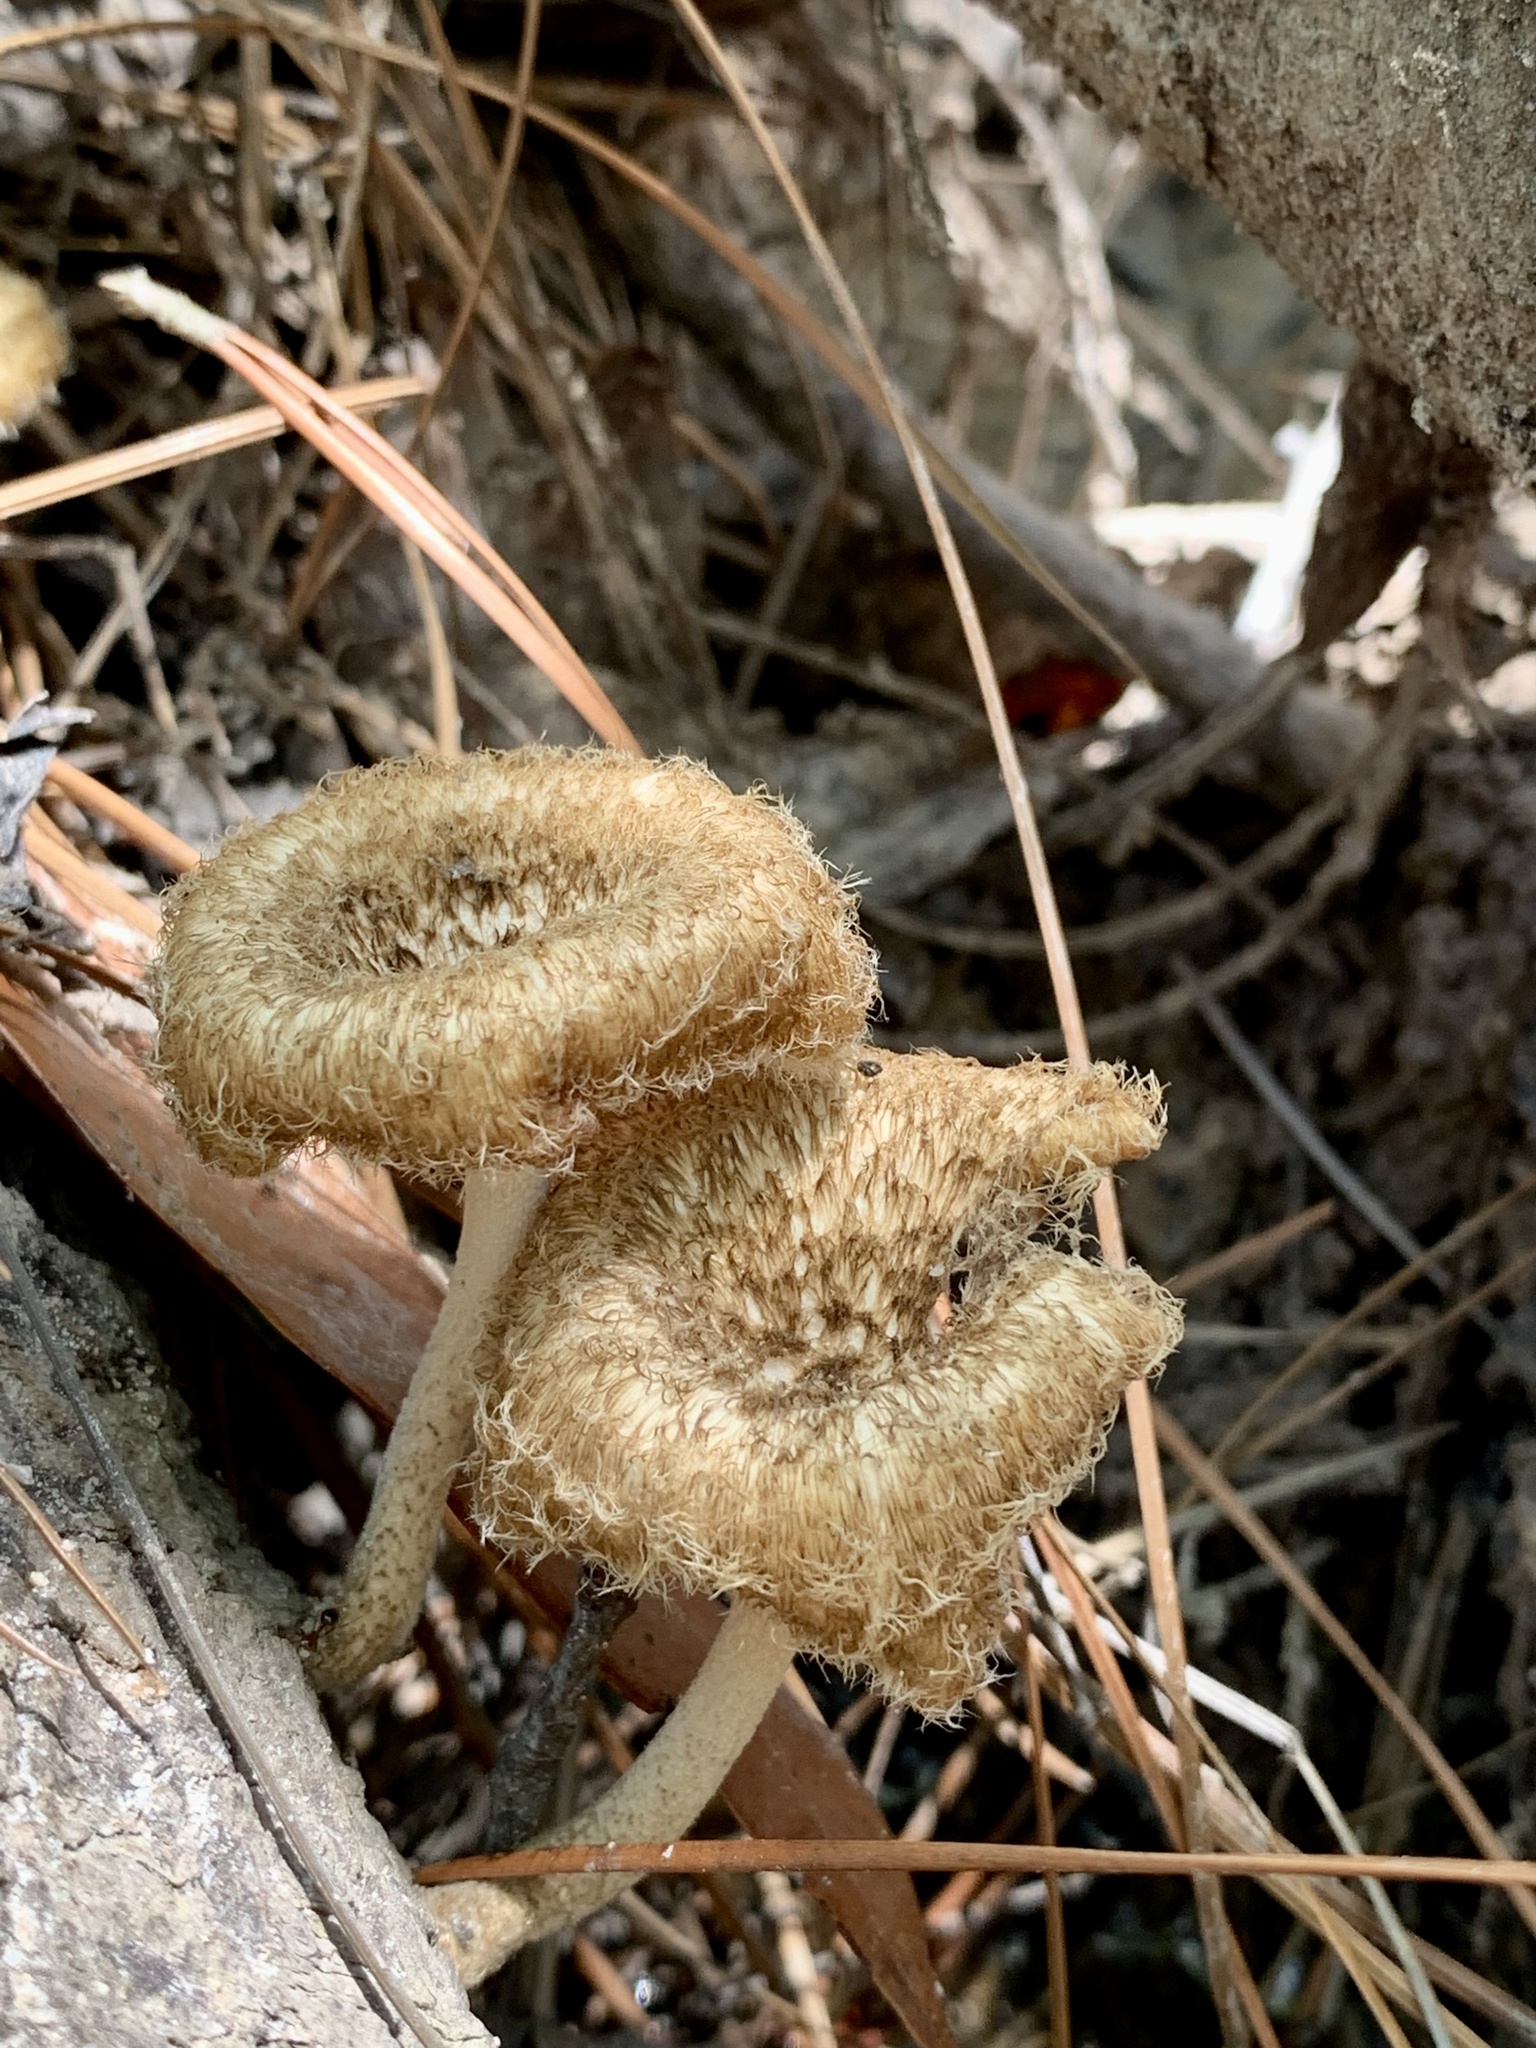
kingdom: Plantae
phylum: Tracheophyta
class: Liliopsida
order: Liliales
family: Melanthiaceae
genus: Melanthium
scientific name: Melanthium virginicum
